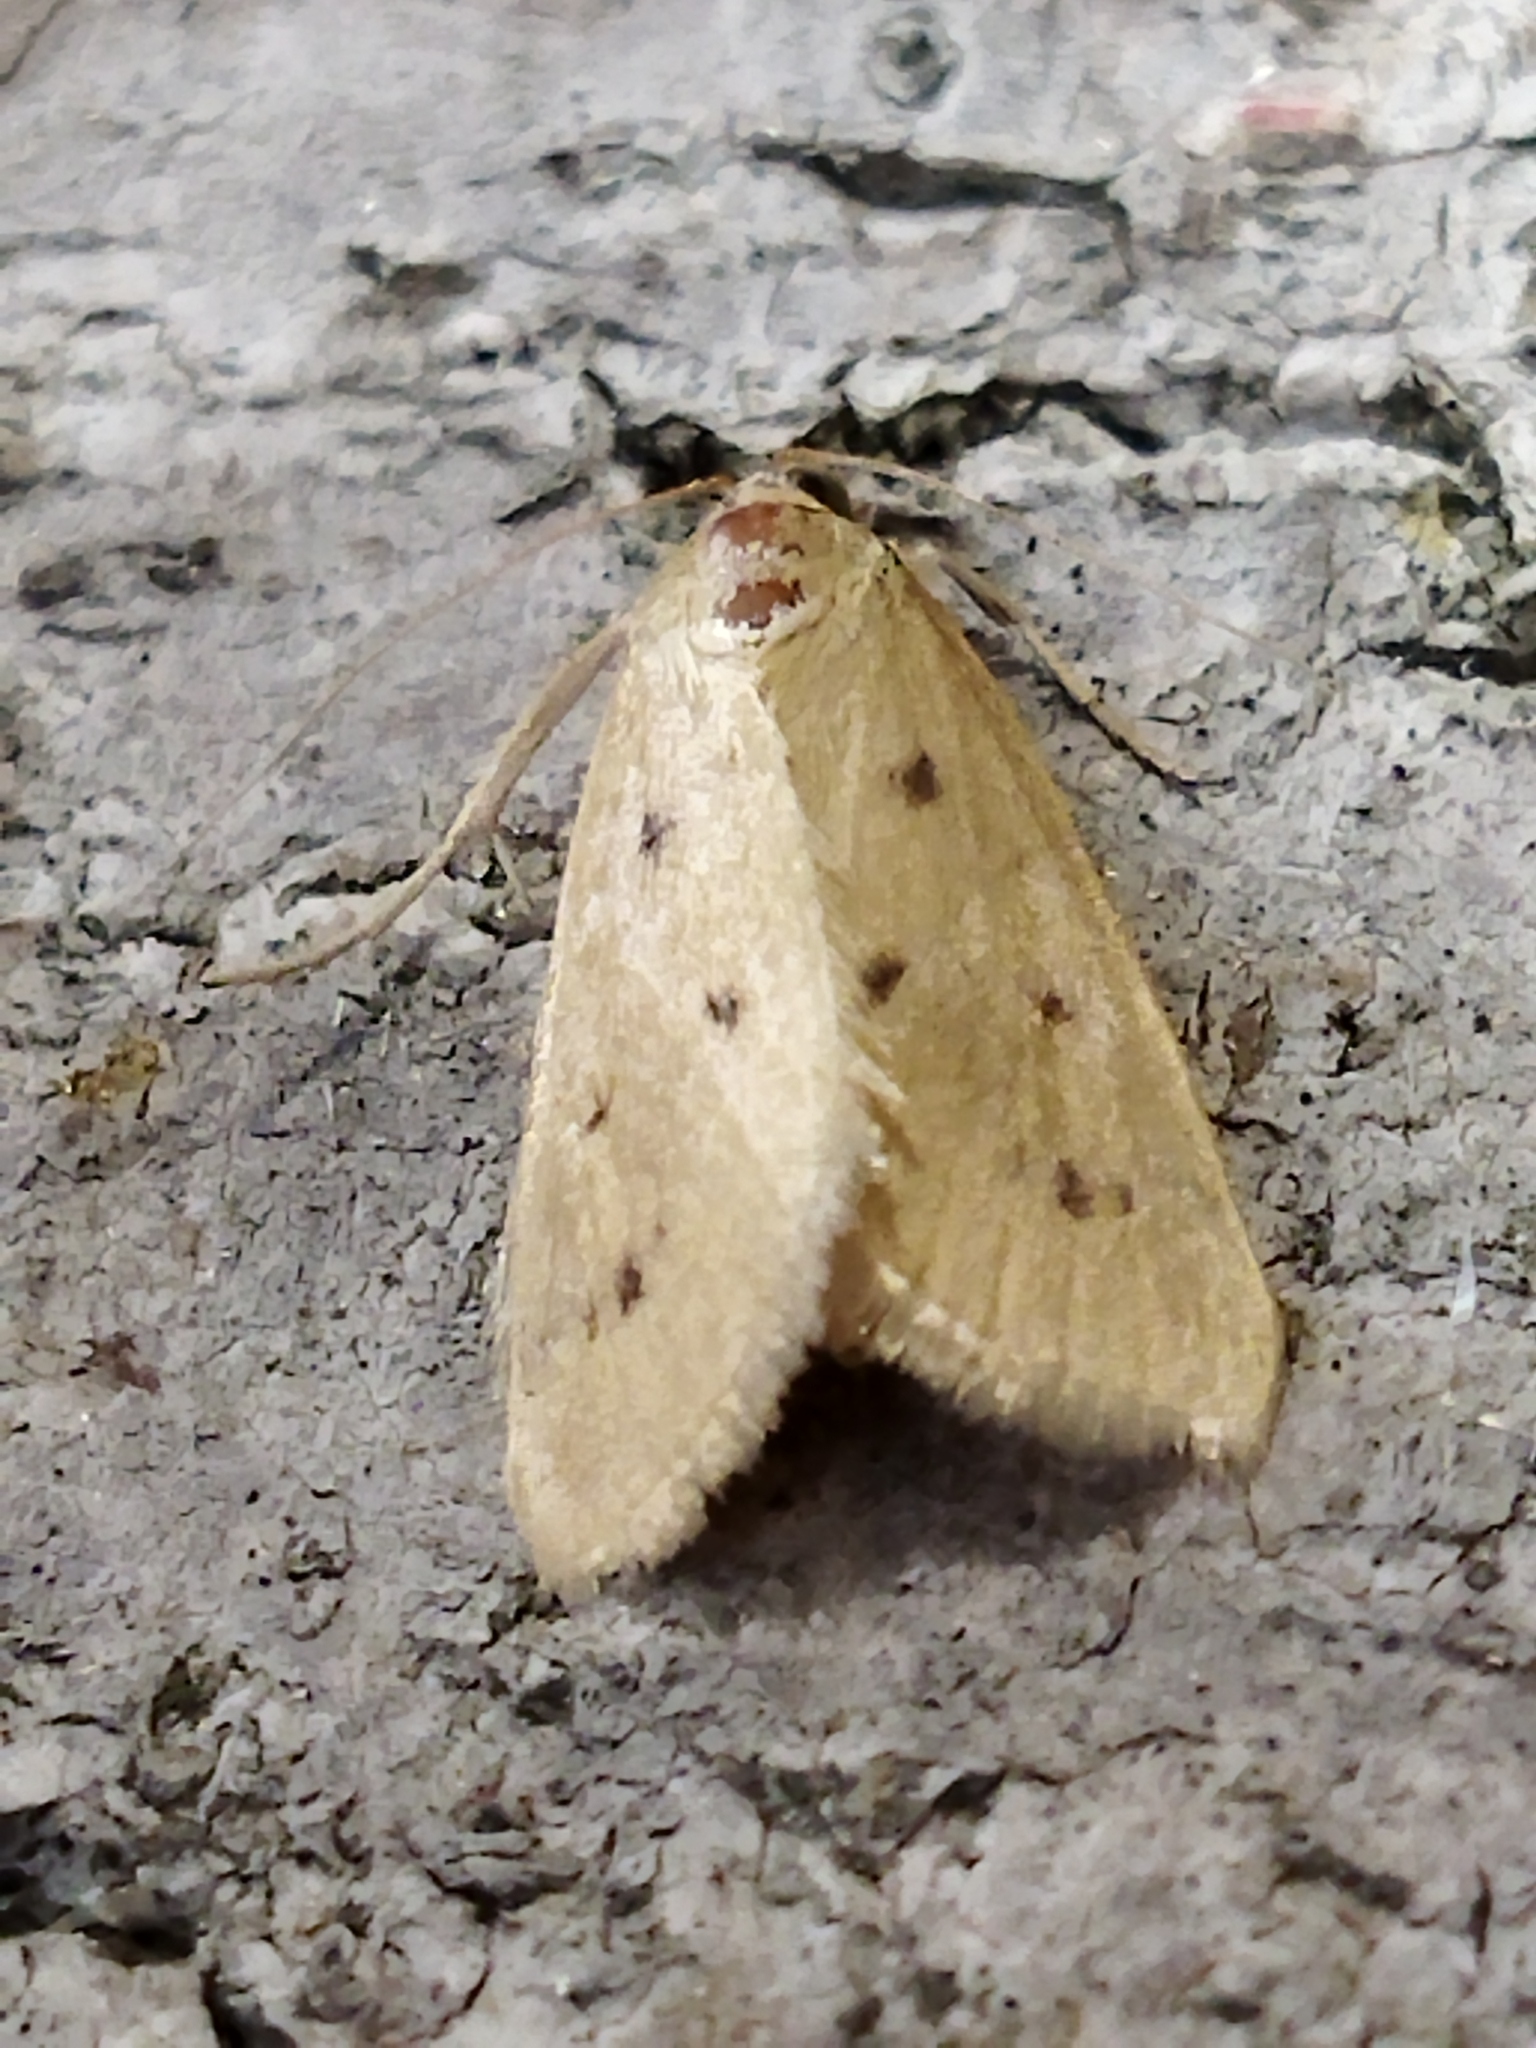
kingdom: Animalia
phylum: Arthropoda
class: Insecta
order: Lepidoptera
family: Crambidae
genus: Achyra
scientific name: Achyra nudalis
